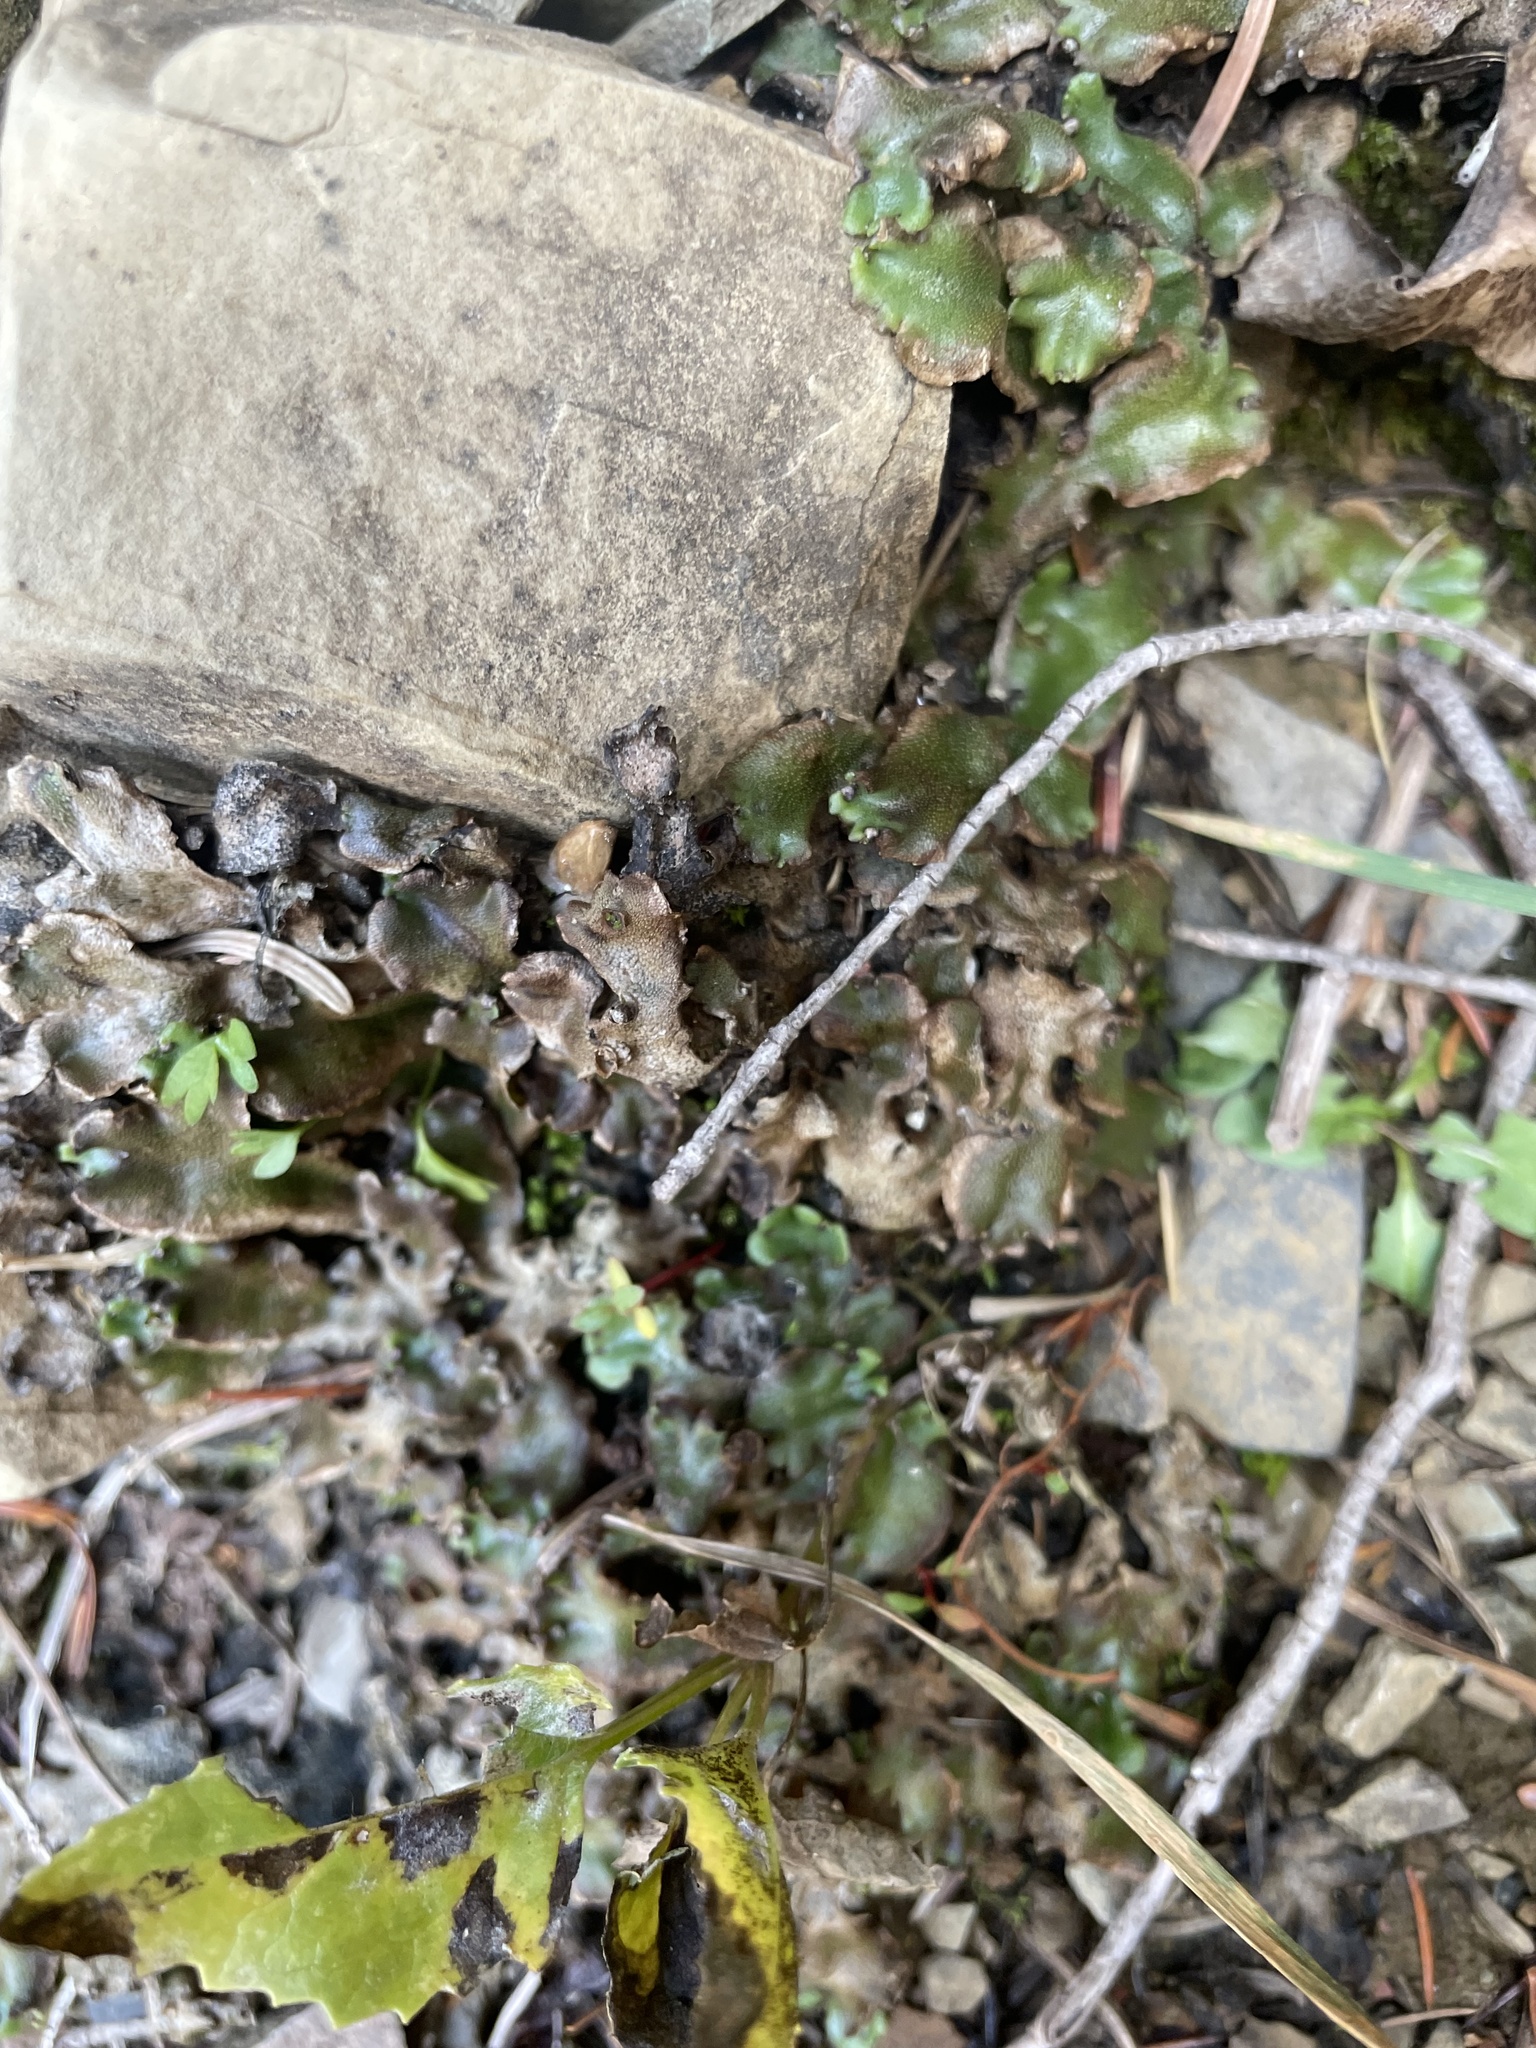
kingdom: Plantae
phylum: Marchantiophyta
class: Marchantiopsida
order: Marchantiales
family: Marchantiaceae
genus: Marchantia
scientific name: Marchantia polymorpha
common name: Common liverwort
